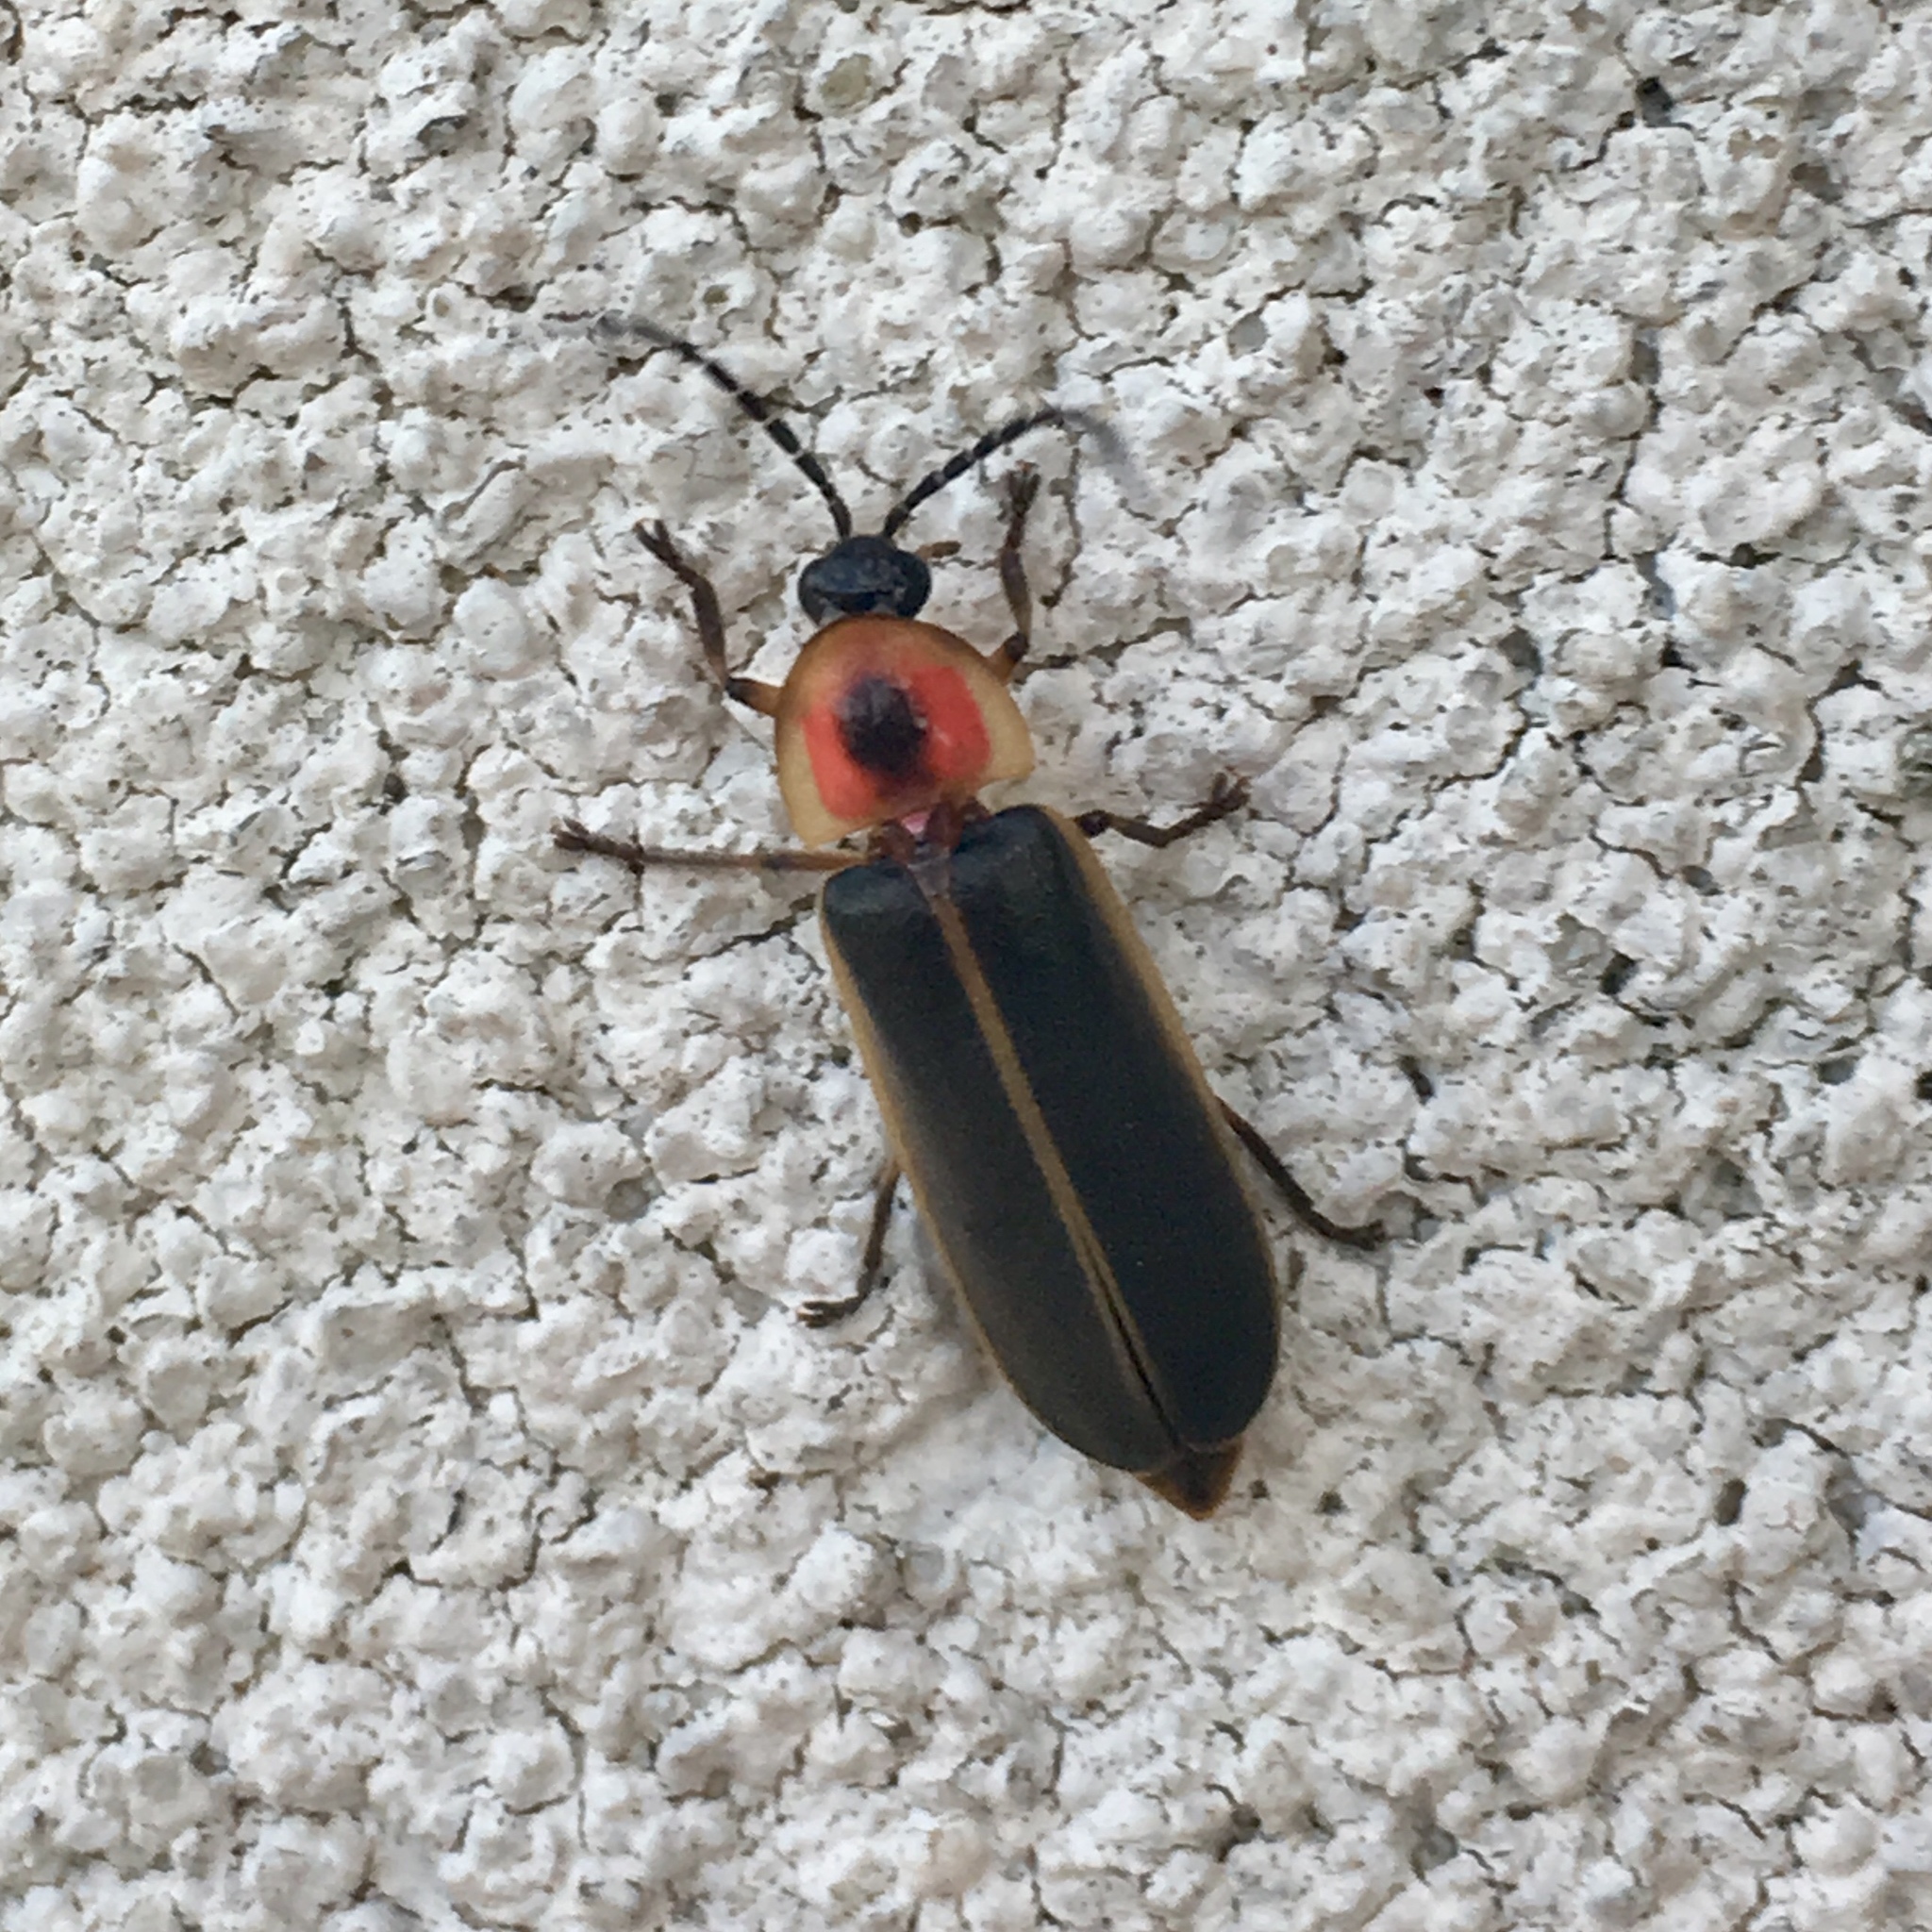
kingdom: Animalia
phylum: Arthropoda
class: Insecta
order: Coleoptera
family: Lampyridae
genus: Photinus
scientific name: Photinus pyralis
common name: Big dipper firefly
